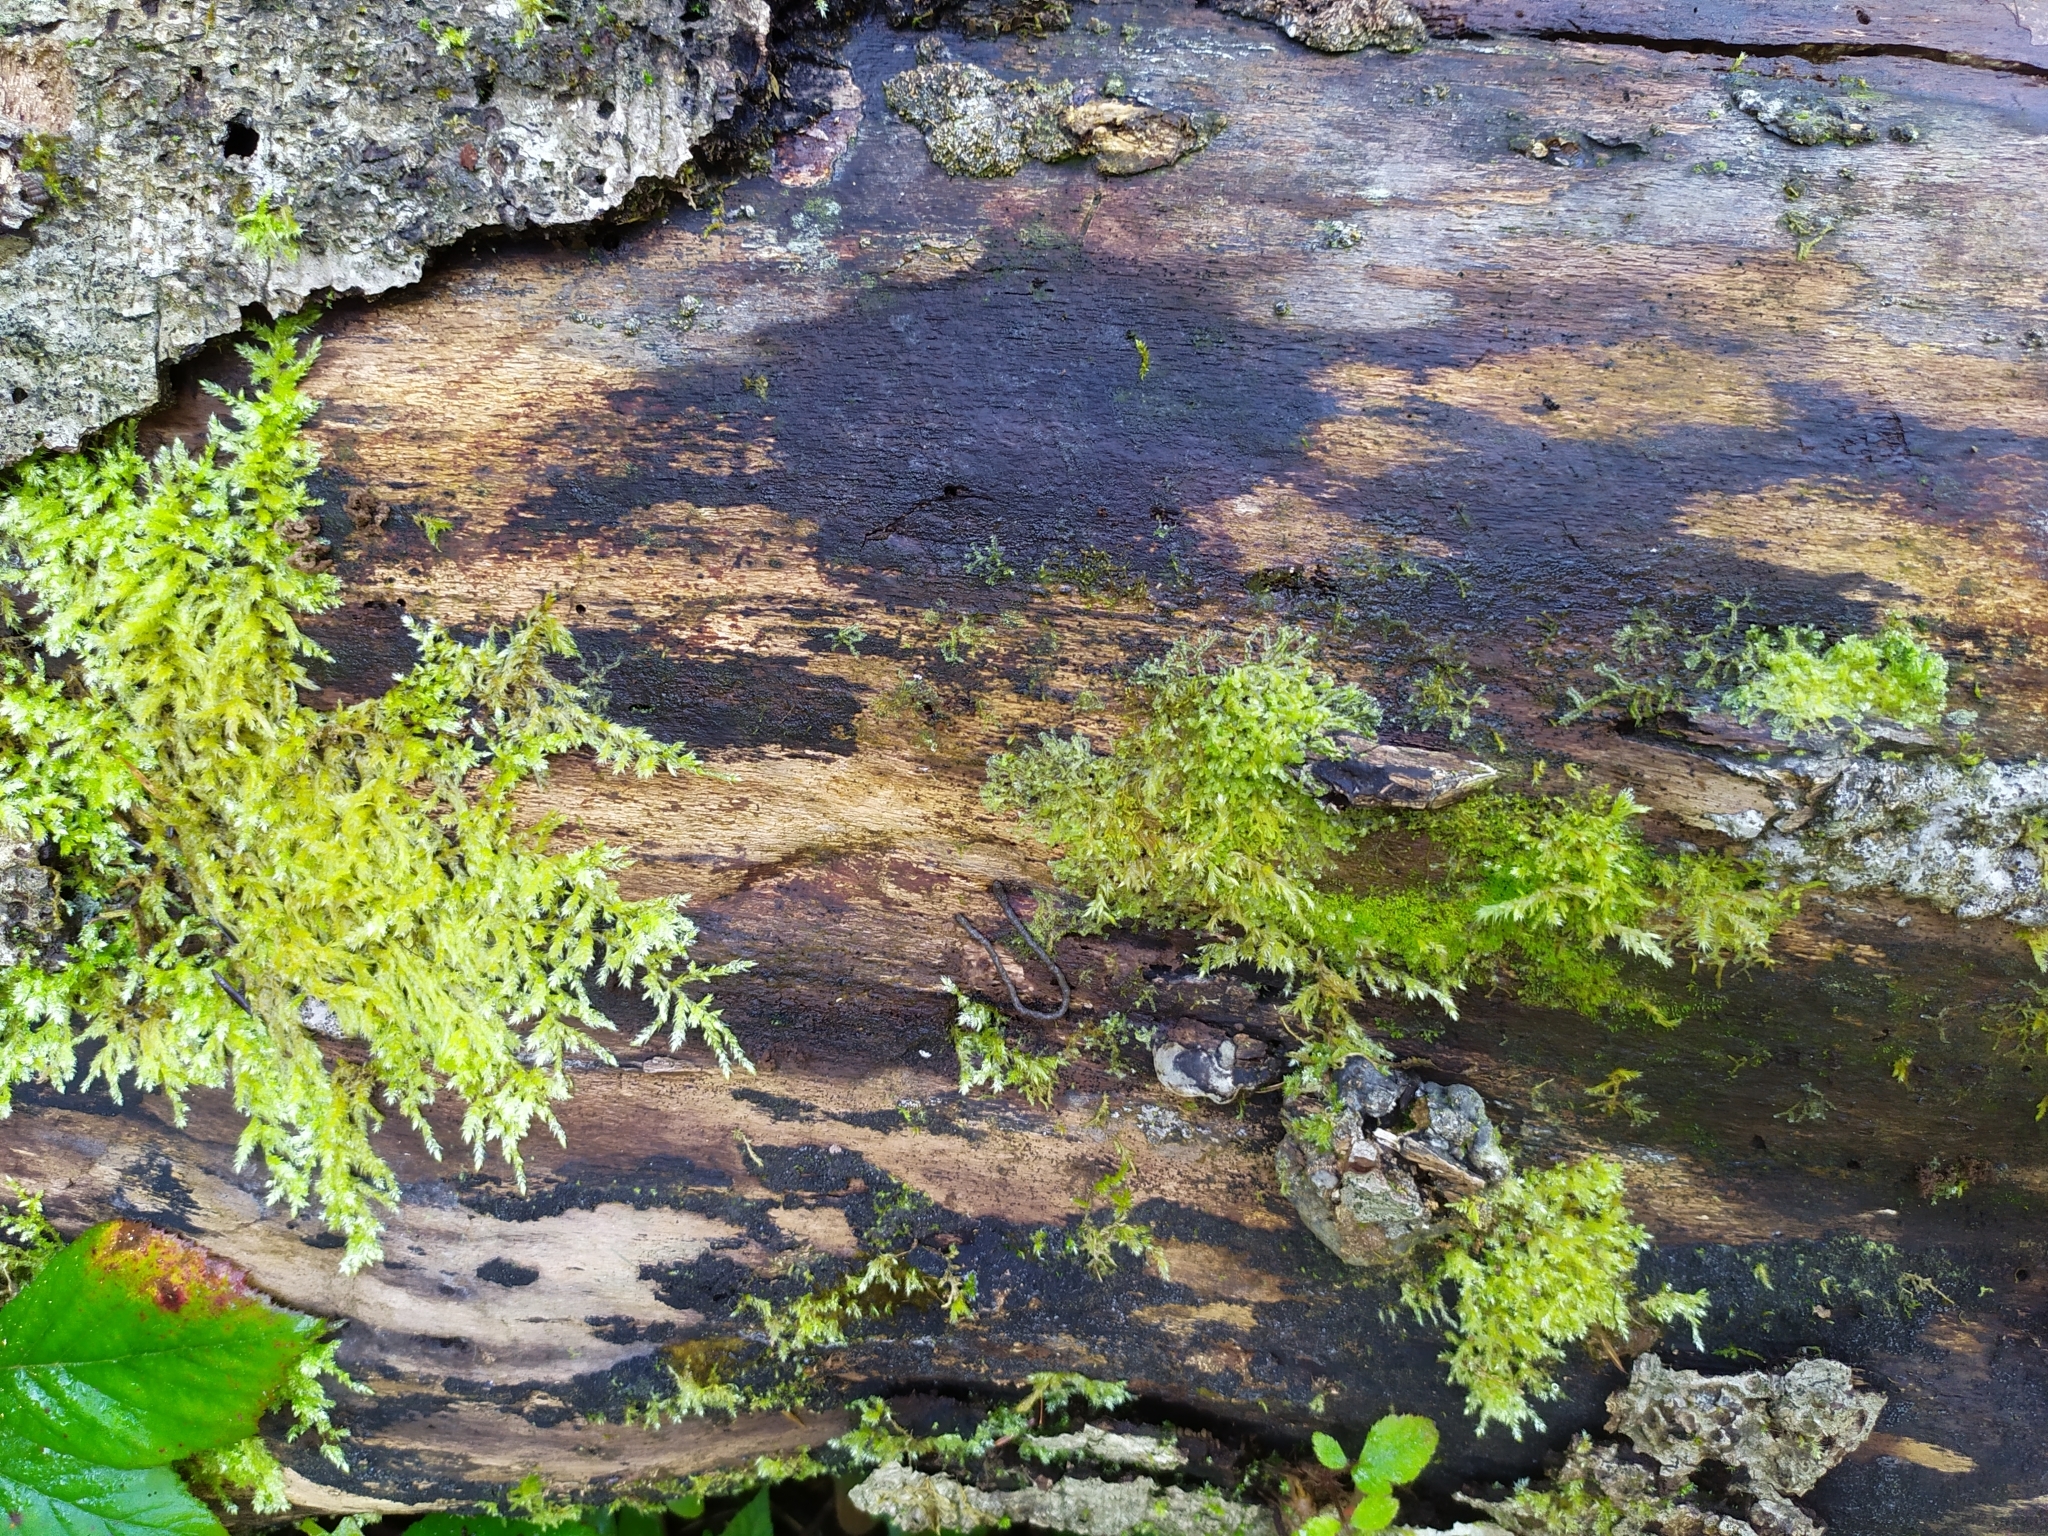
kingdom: Plantae
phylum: Marchantiophyta
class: Jungermanniopsida
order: Jungermanniales
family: Lophocoleaceae
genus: Lophocolea
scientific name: Lophocolea heterophylla
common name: Variable-leaved crestwort
